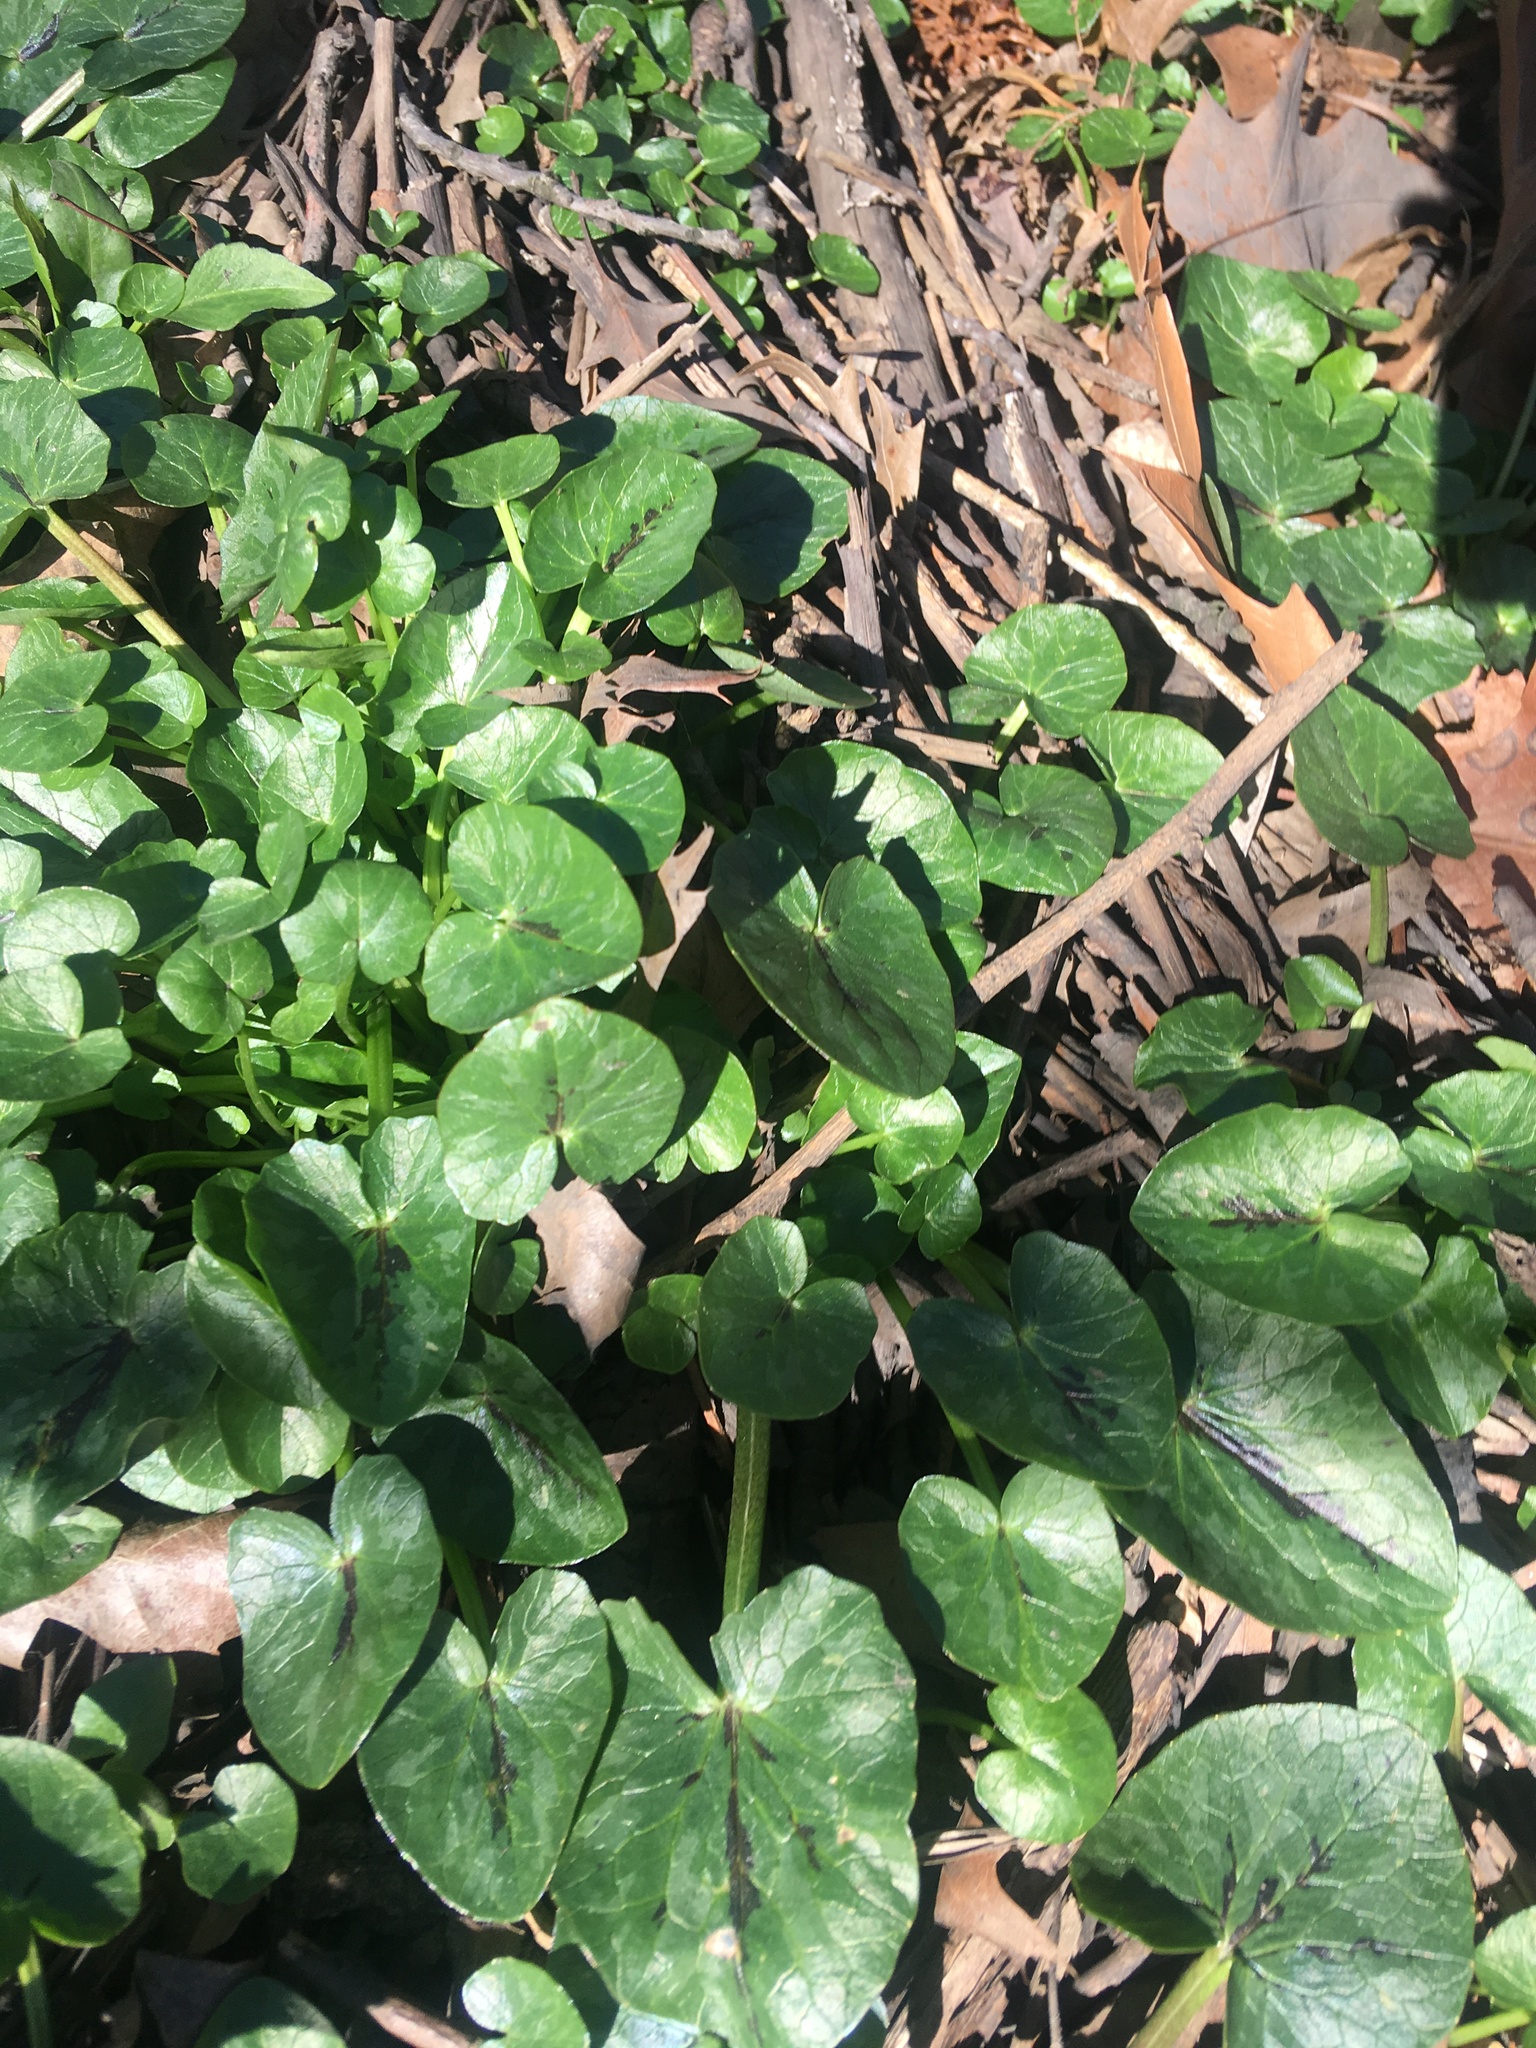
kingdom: Plantae
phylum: Tracheophyta
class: Magnoliopsida
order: Ranunculales
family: Ranunculaceae
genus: Ficaria
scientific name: Ficaria verna
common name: Lesser celandine
